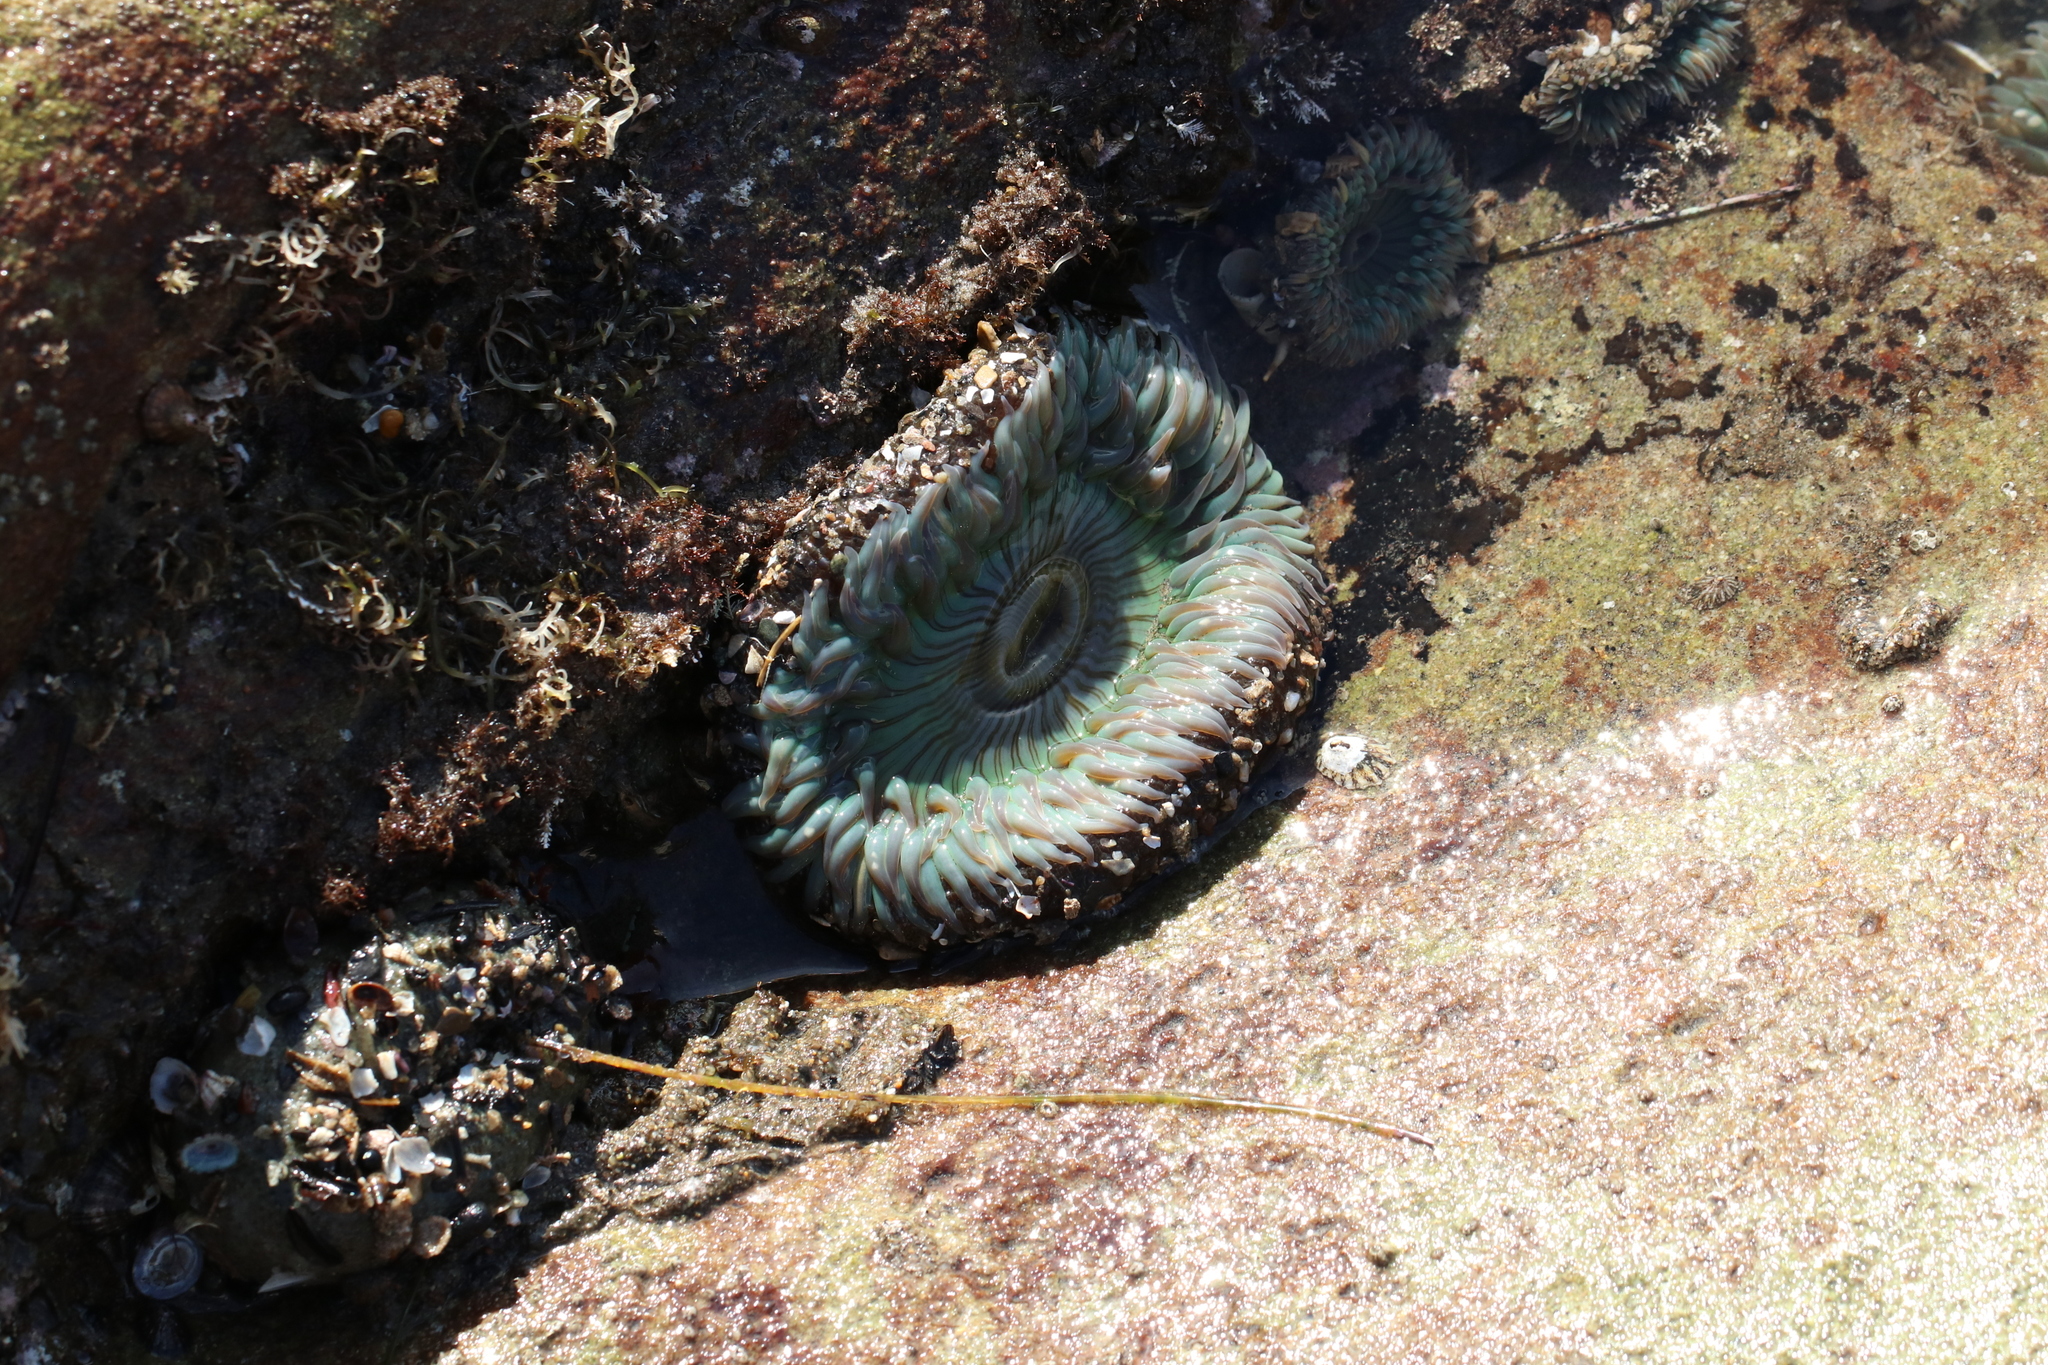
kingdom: Animalia
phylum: Cnidaria
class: Anthozoa
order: Actiniaria
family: Actiniidae
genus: Anthopleura
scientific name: Anthopleura sola
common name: Sun anemone
